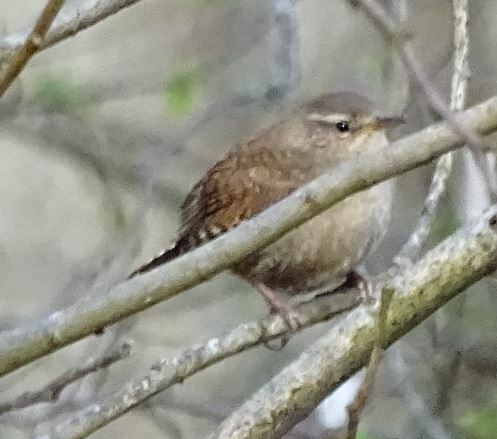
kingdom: Animalia
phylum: Chordata
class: Aves
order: Passeriformes
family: Troglodytidae
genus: Troglodytes
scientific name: Troglodytes troglodytes
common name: Eurasian wren
